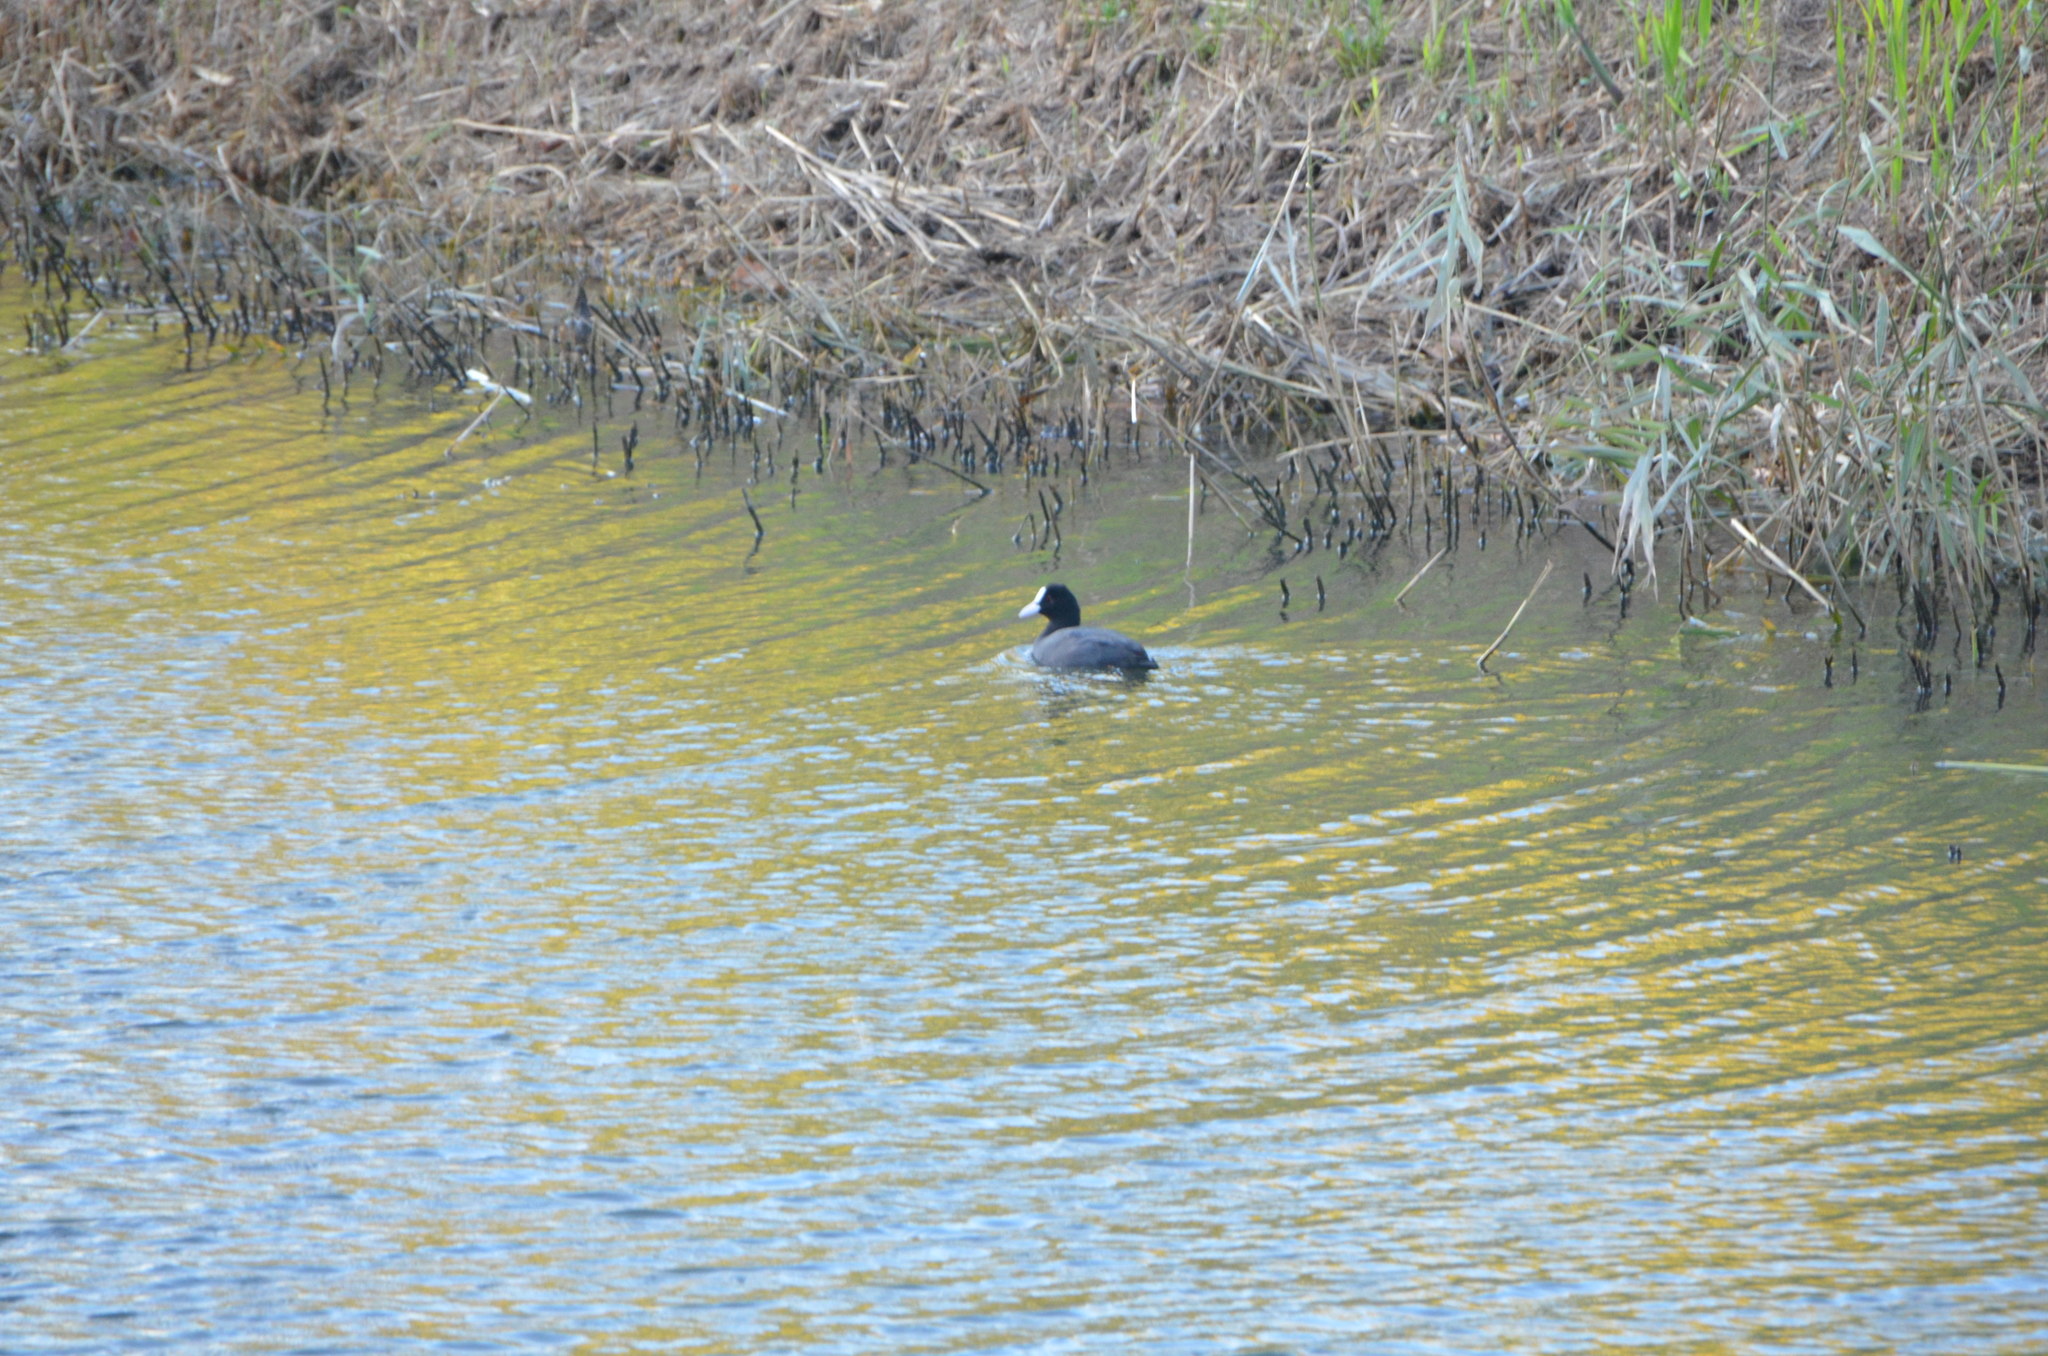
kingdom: Animalia
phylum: Chordata
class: Aves
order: Gruiformes
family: Rallidae
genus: Fulica
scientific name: Fulica atra
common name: Eurasian coot
